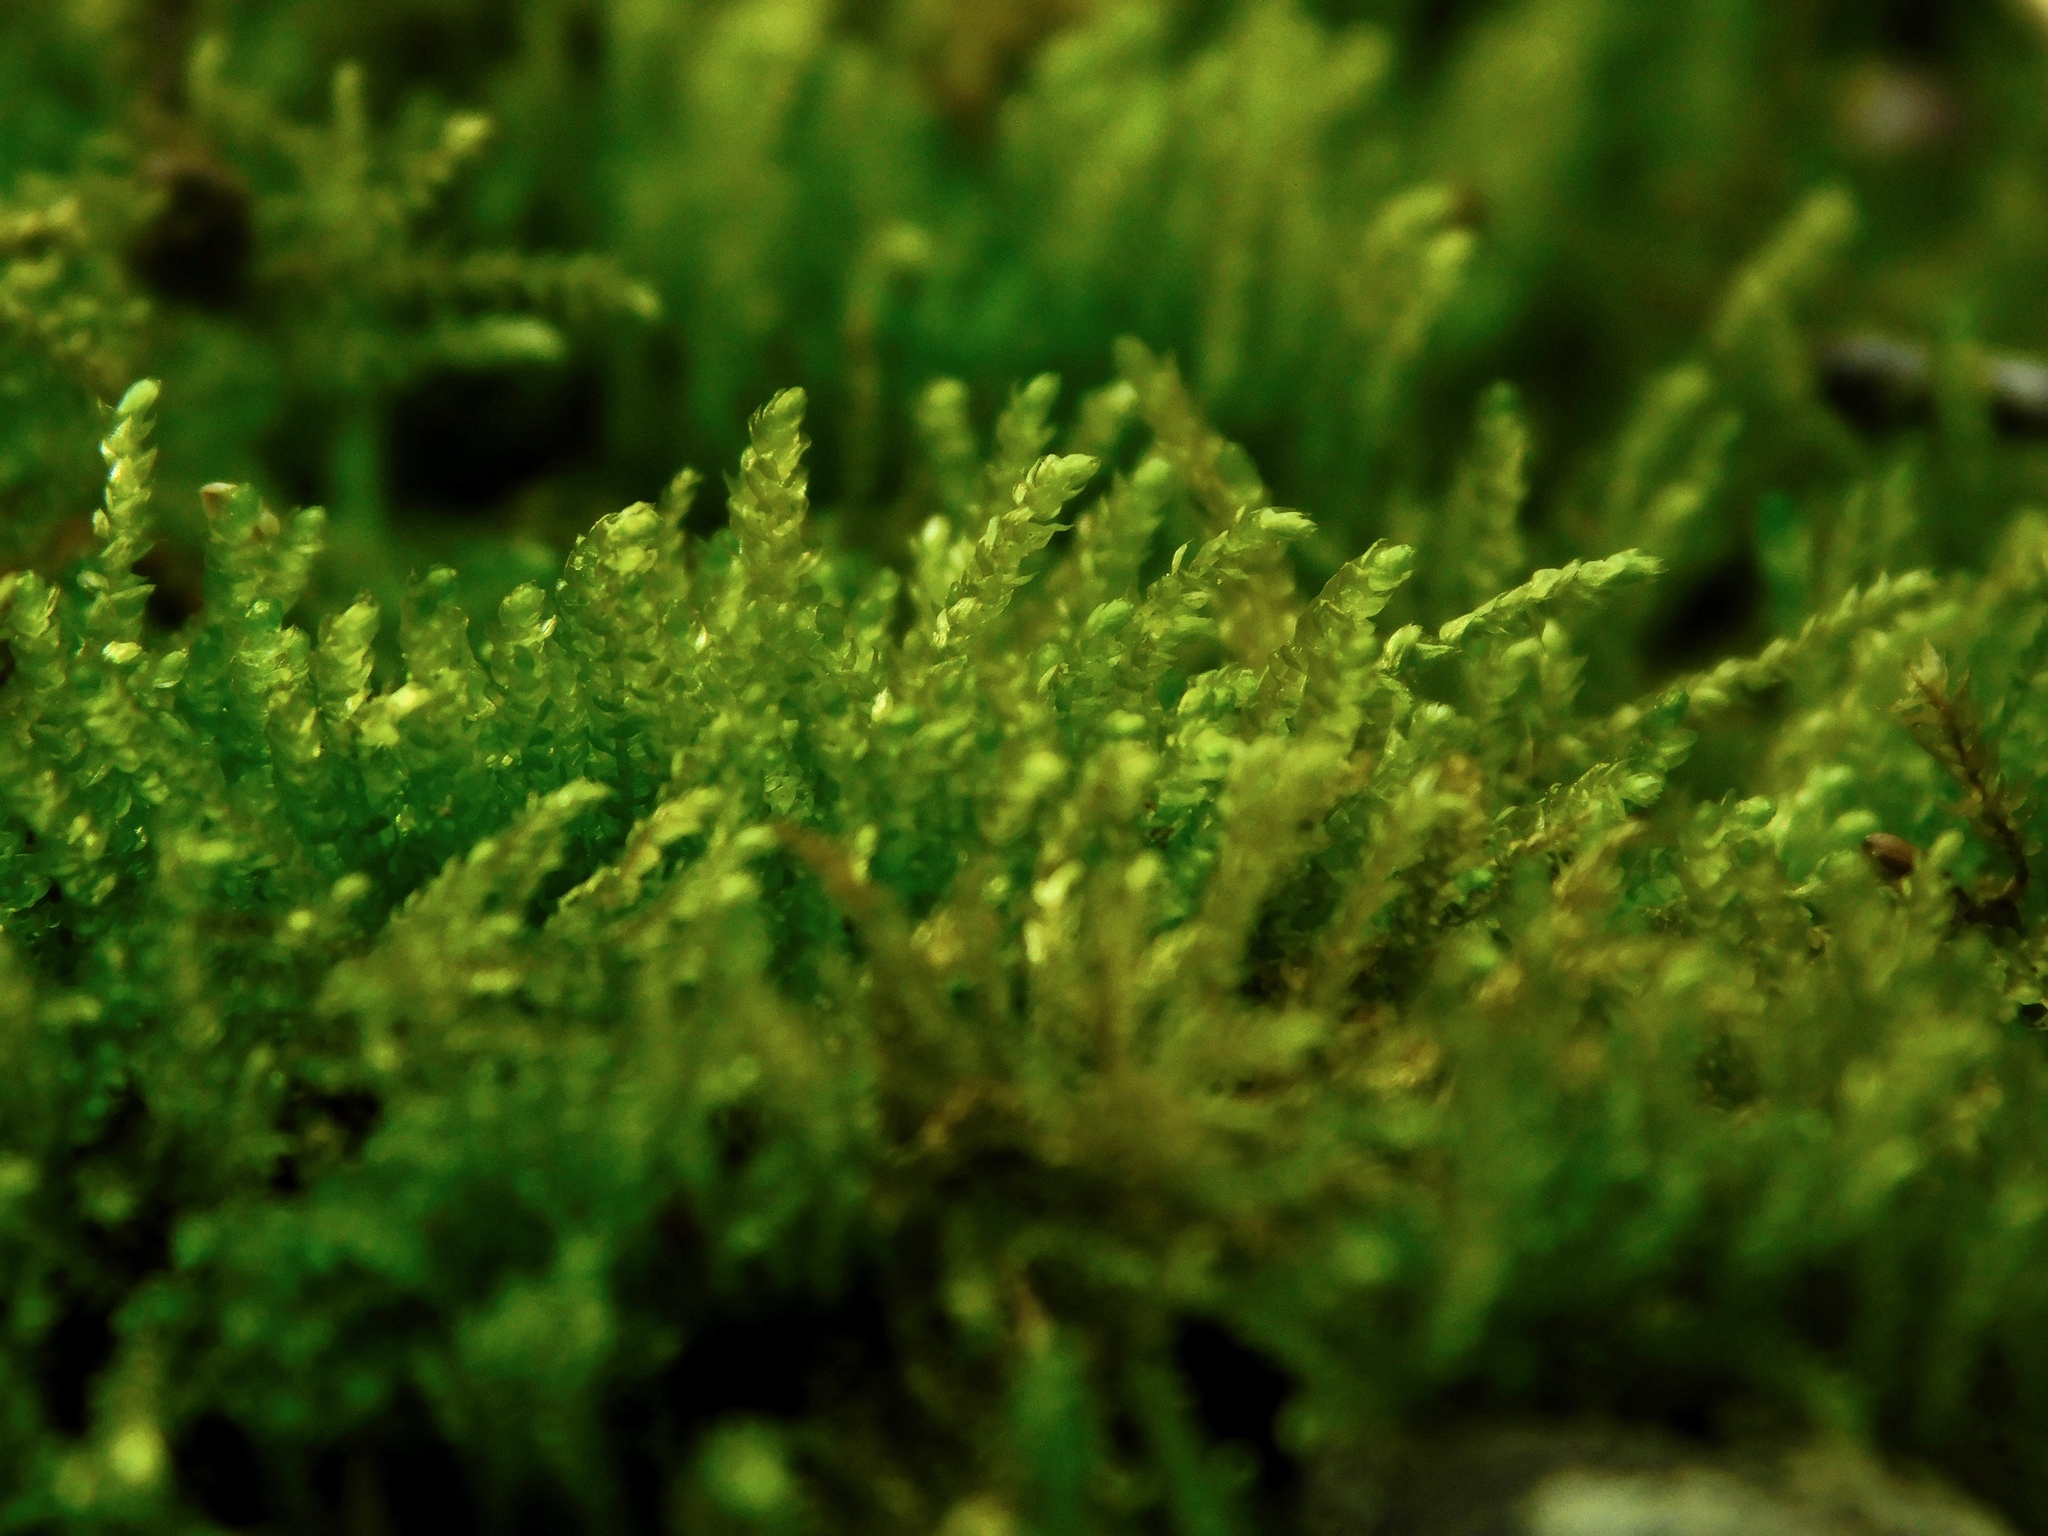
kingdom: Plantae
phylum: Bryophyta
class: Bryopsida
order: Hypnales
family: Brachytheciaceae
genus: Eurhynchiastrum
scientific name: Eurhynchiastrum pulchellum
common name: Elegant beaked moss
